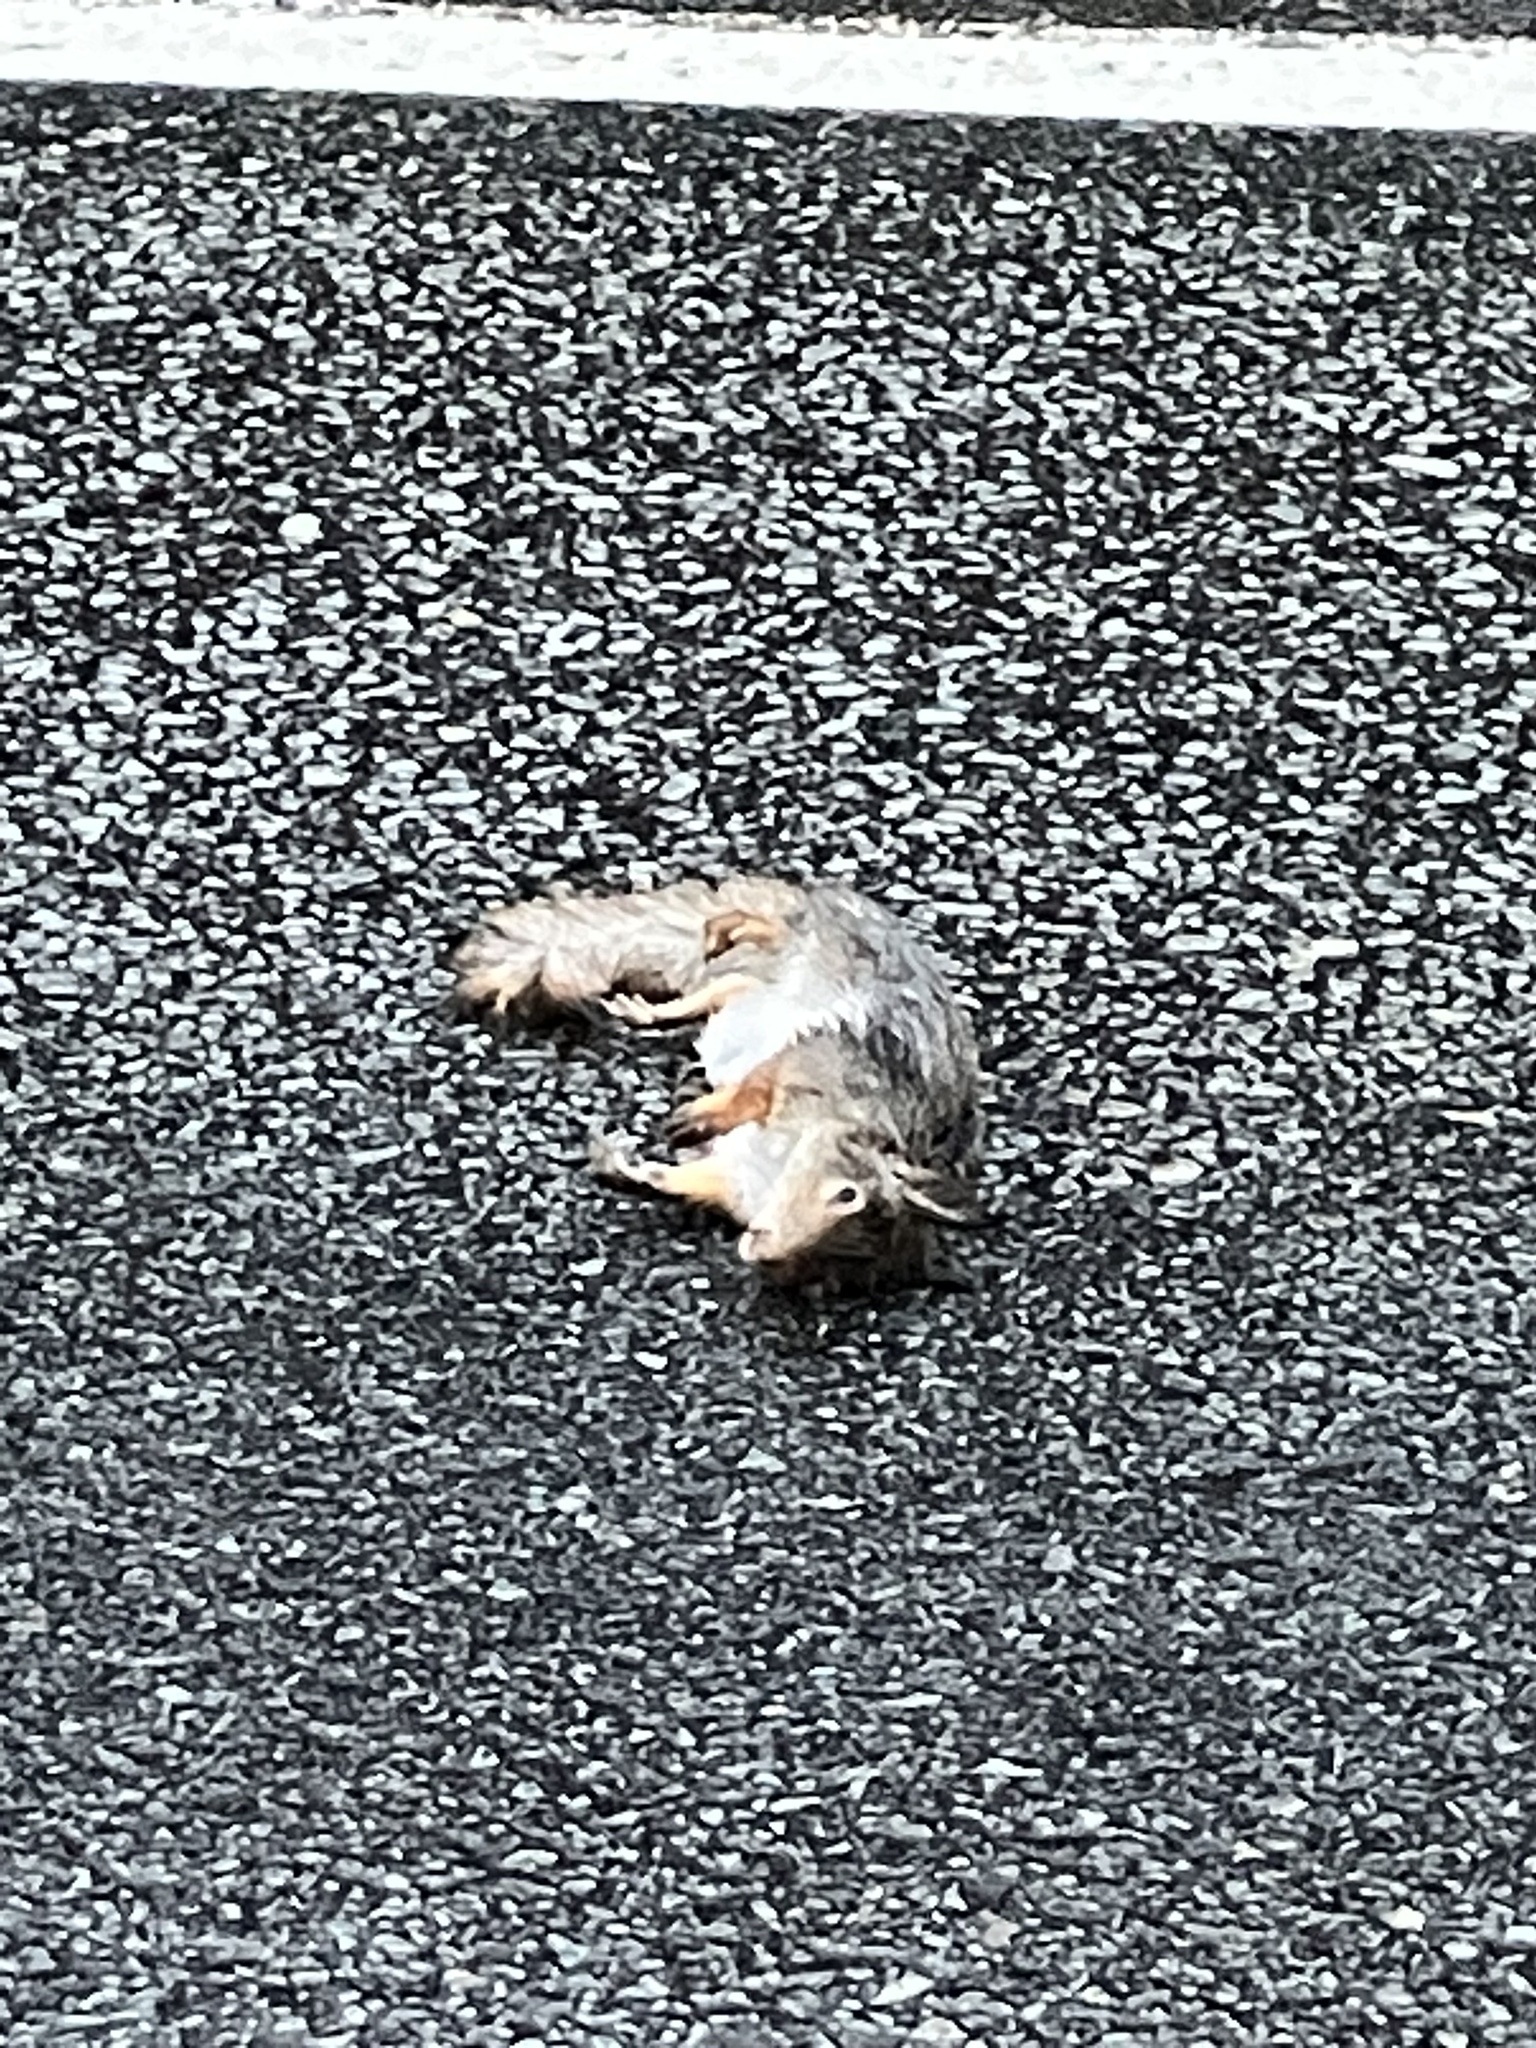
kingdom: Animalia
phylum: Chordata
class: Mammalia
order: Rodentia
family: Sciuridae
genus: Sciurus
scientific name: Sciurus vulgaris
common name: Eurasian red squirrel
